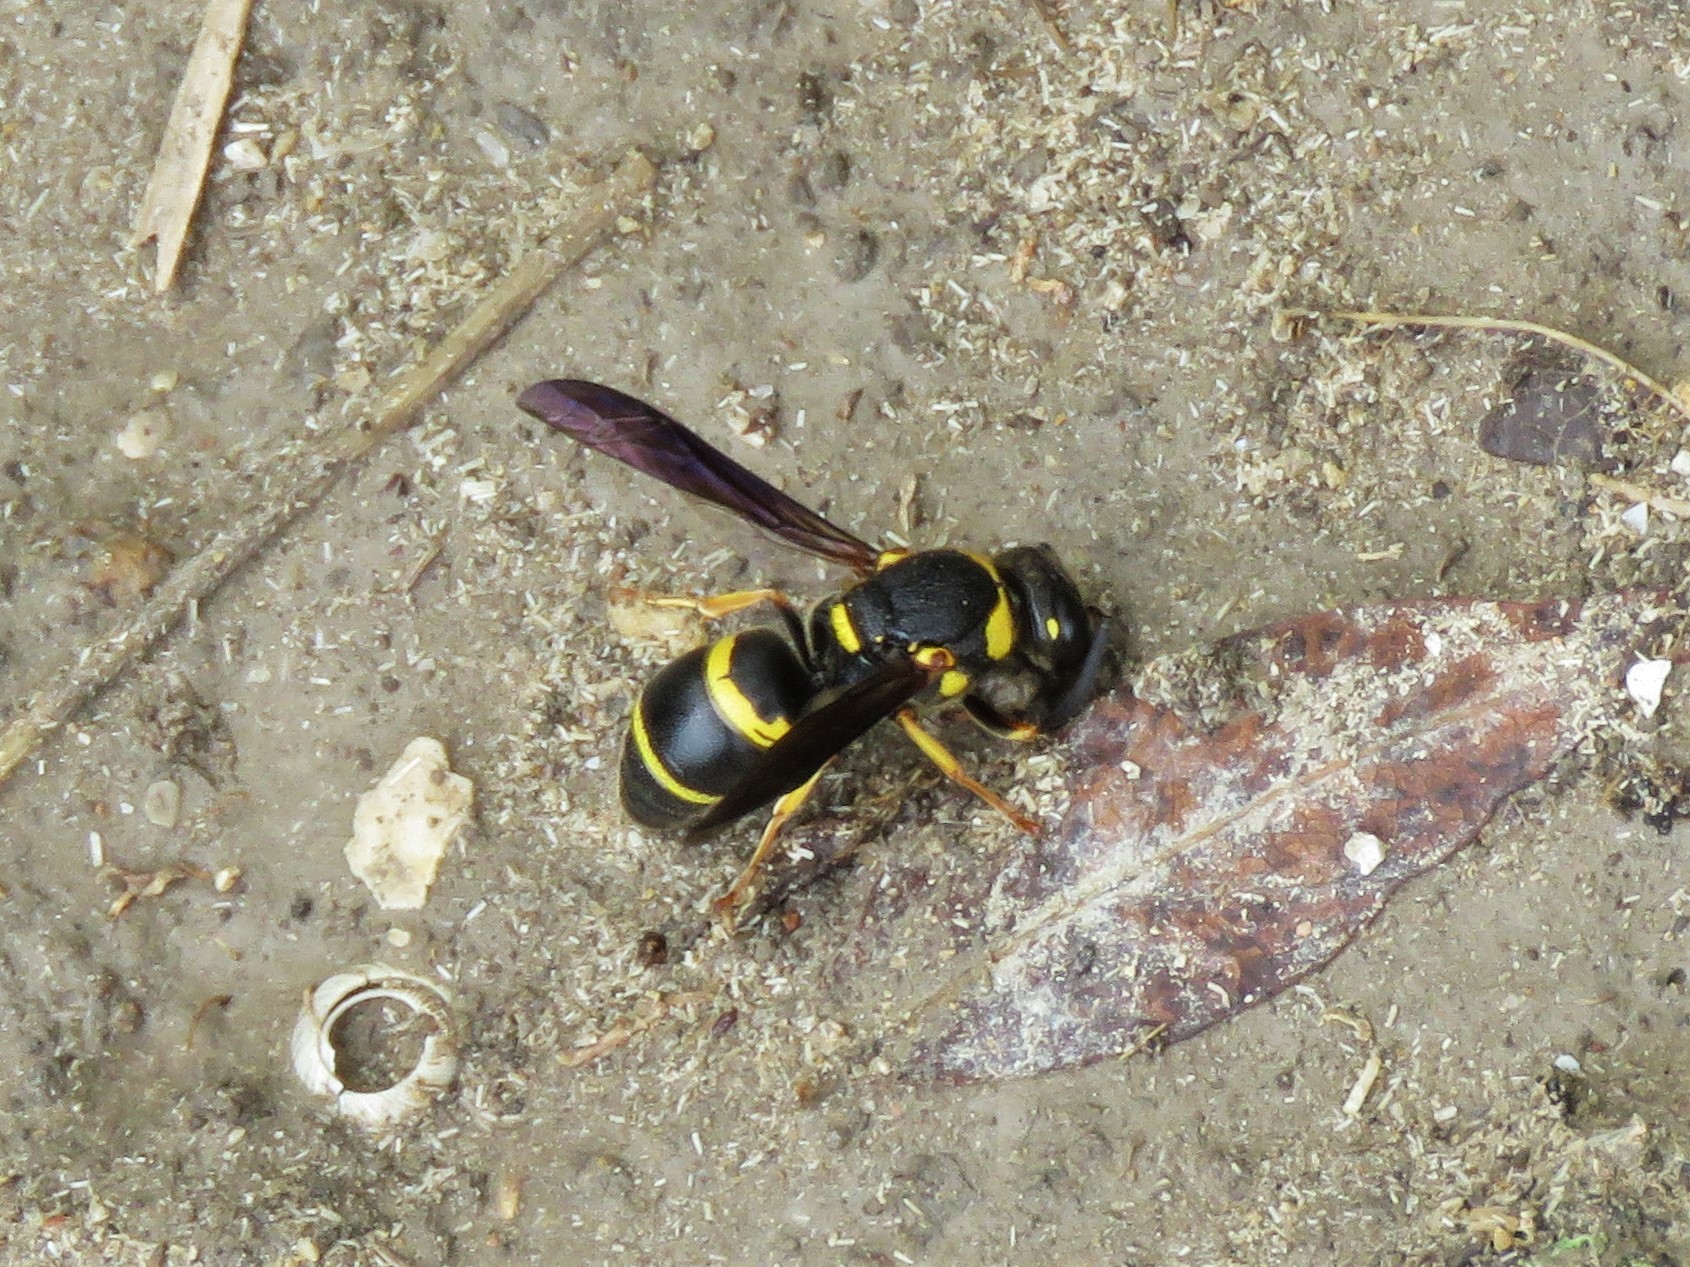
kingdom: Animalia
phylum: Arthropoda
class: Insecta
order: Hymenoptera
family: Eumenidae
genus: Euodynerus
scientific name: Euodynerus foraminatus
